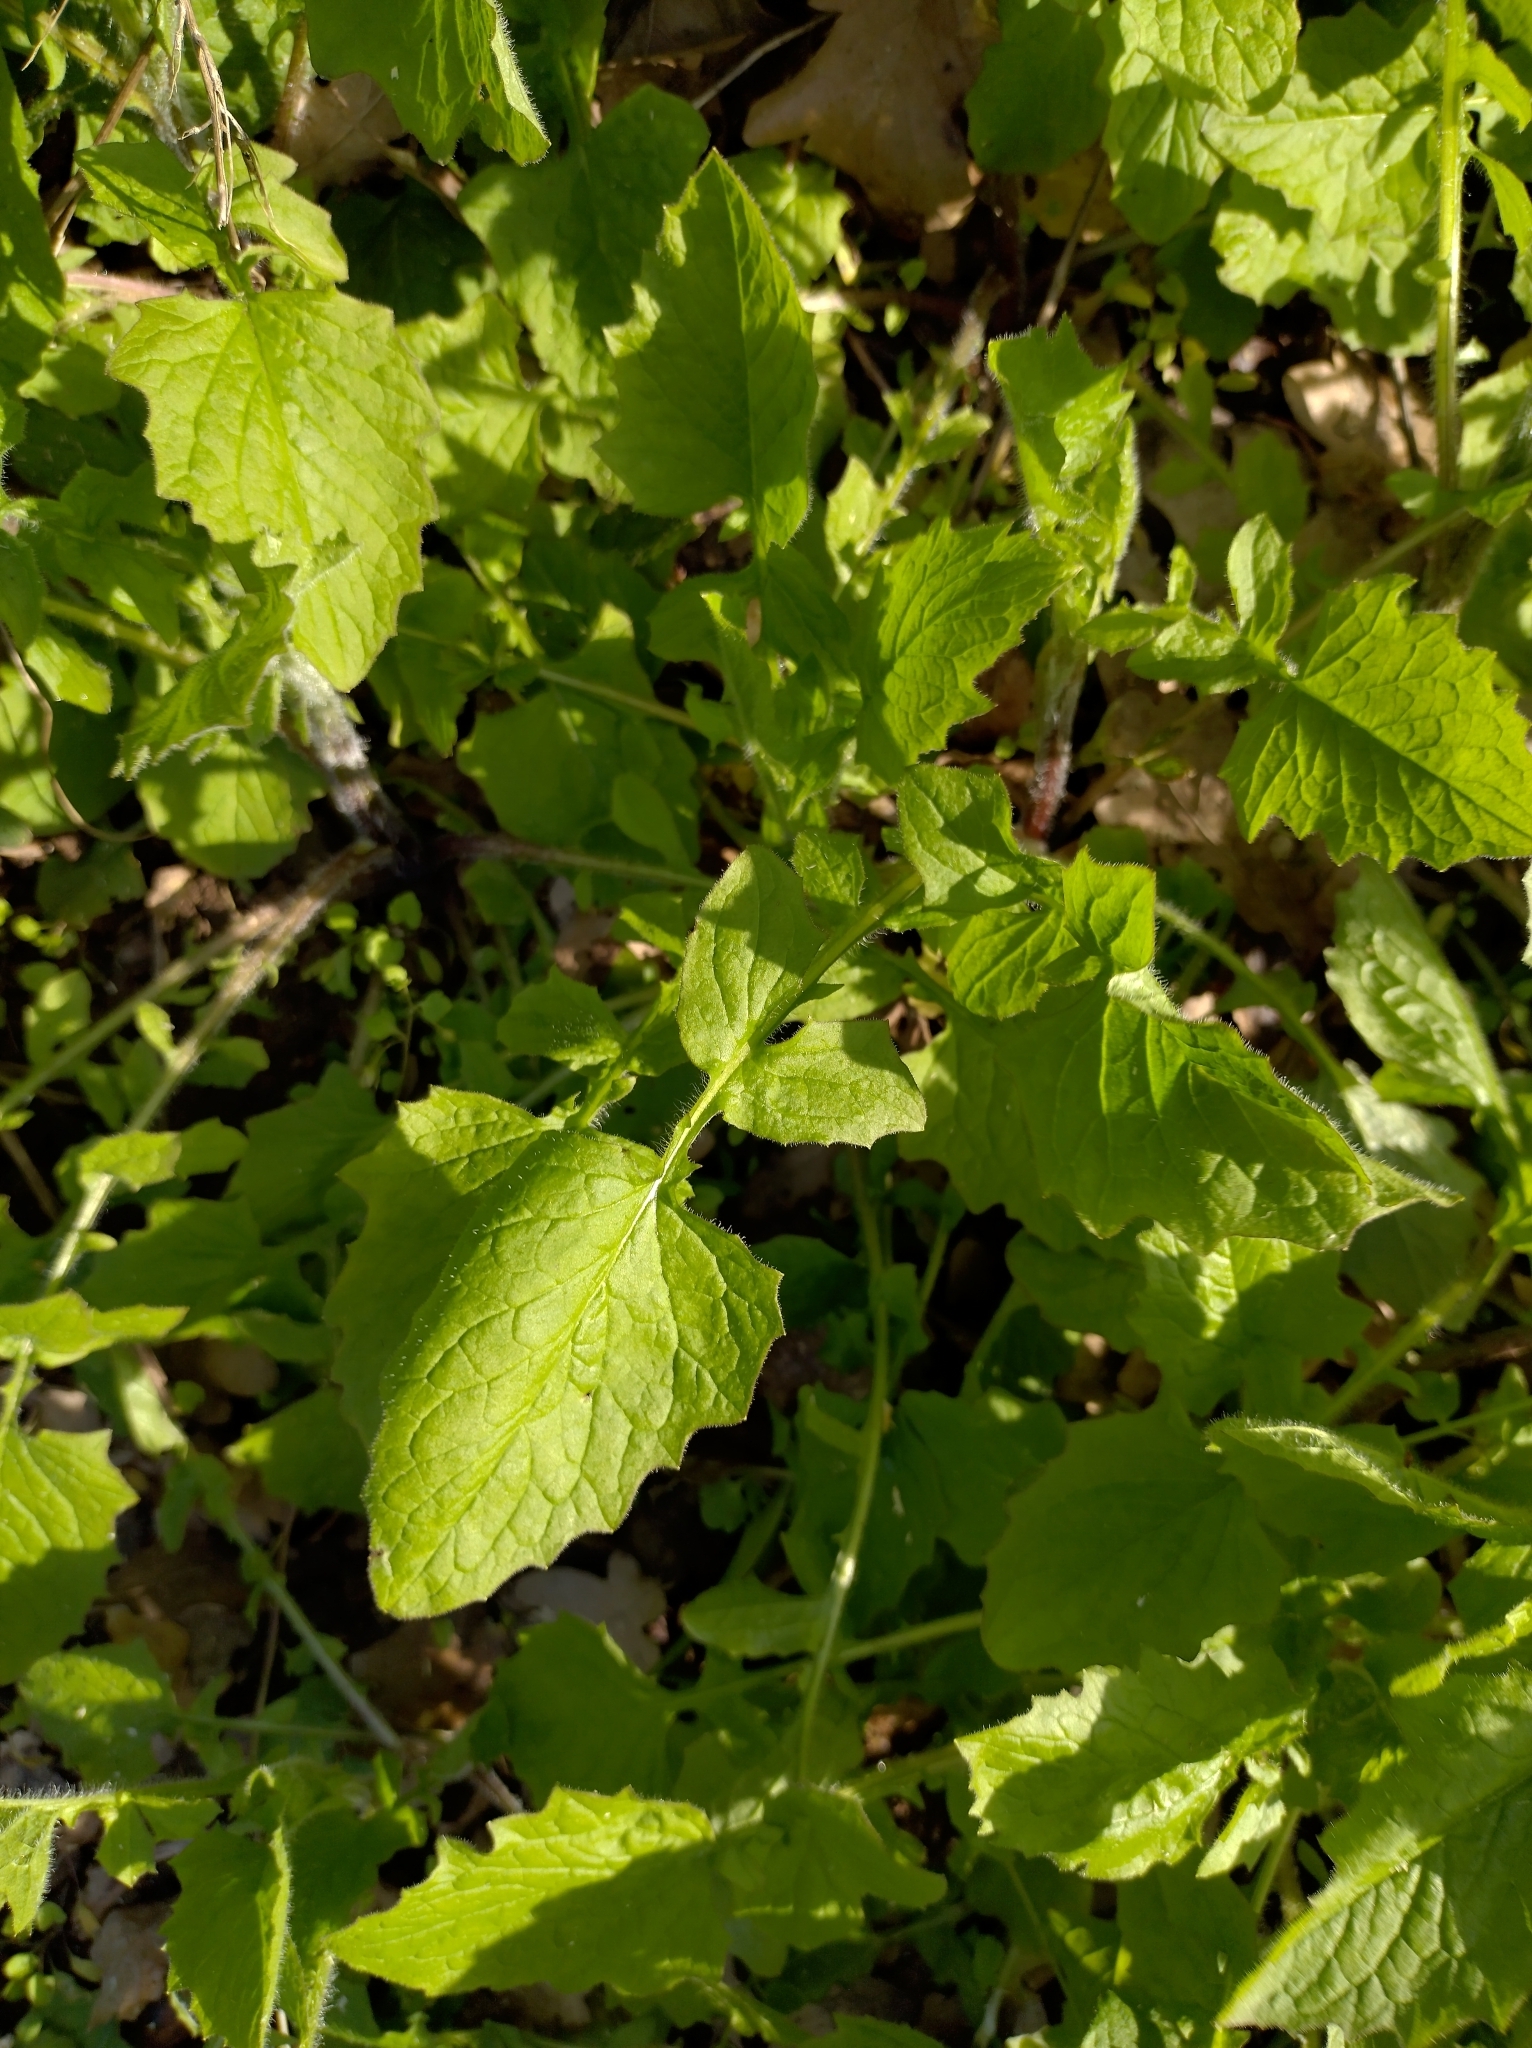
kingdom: Plantae
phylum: Tracheophyta
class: Magnoliopsida
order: Asterales
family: Asteraceae
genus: Lapsana
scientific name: Lapsana communis
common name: Nipplewort
